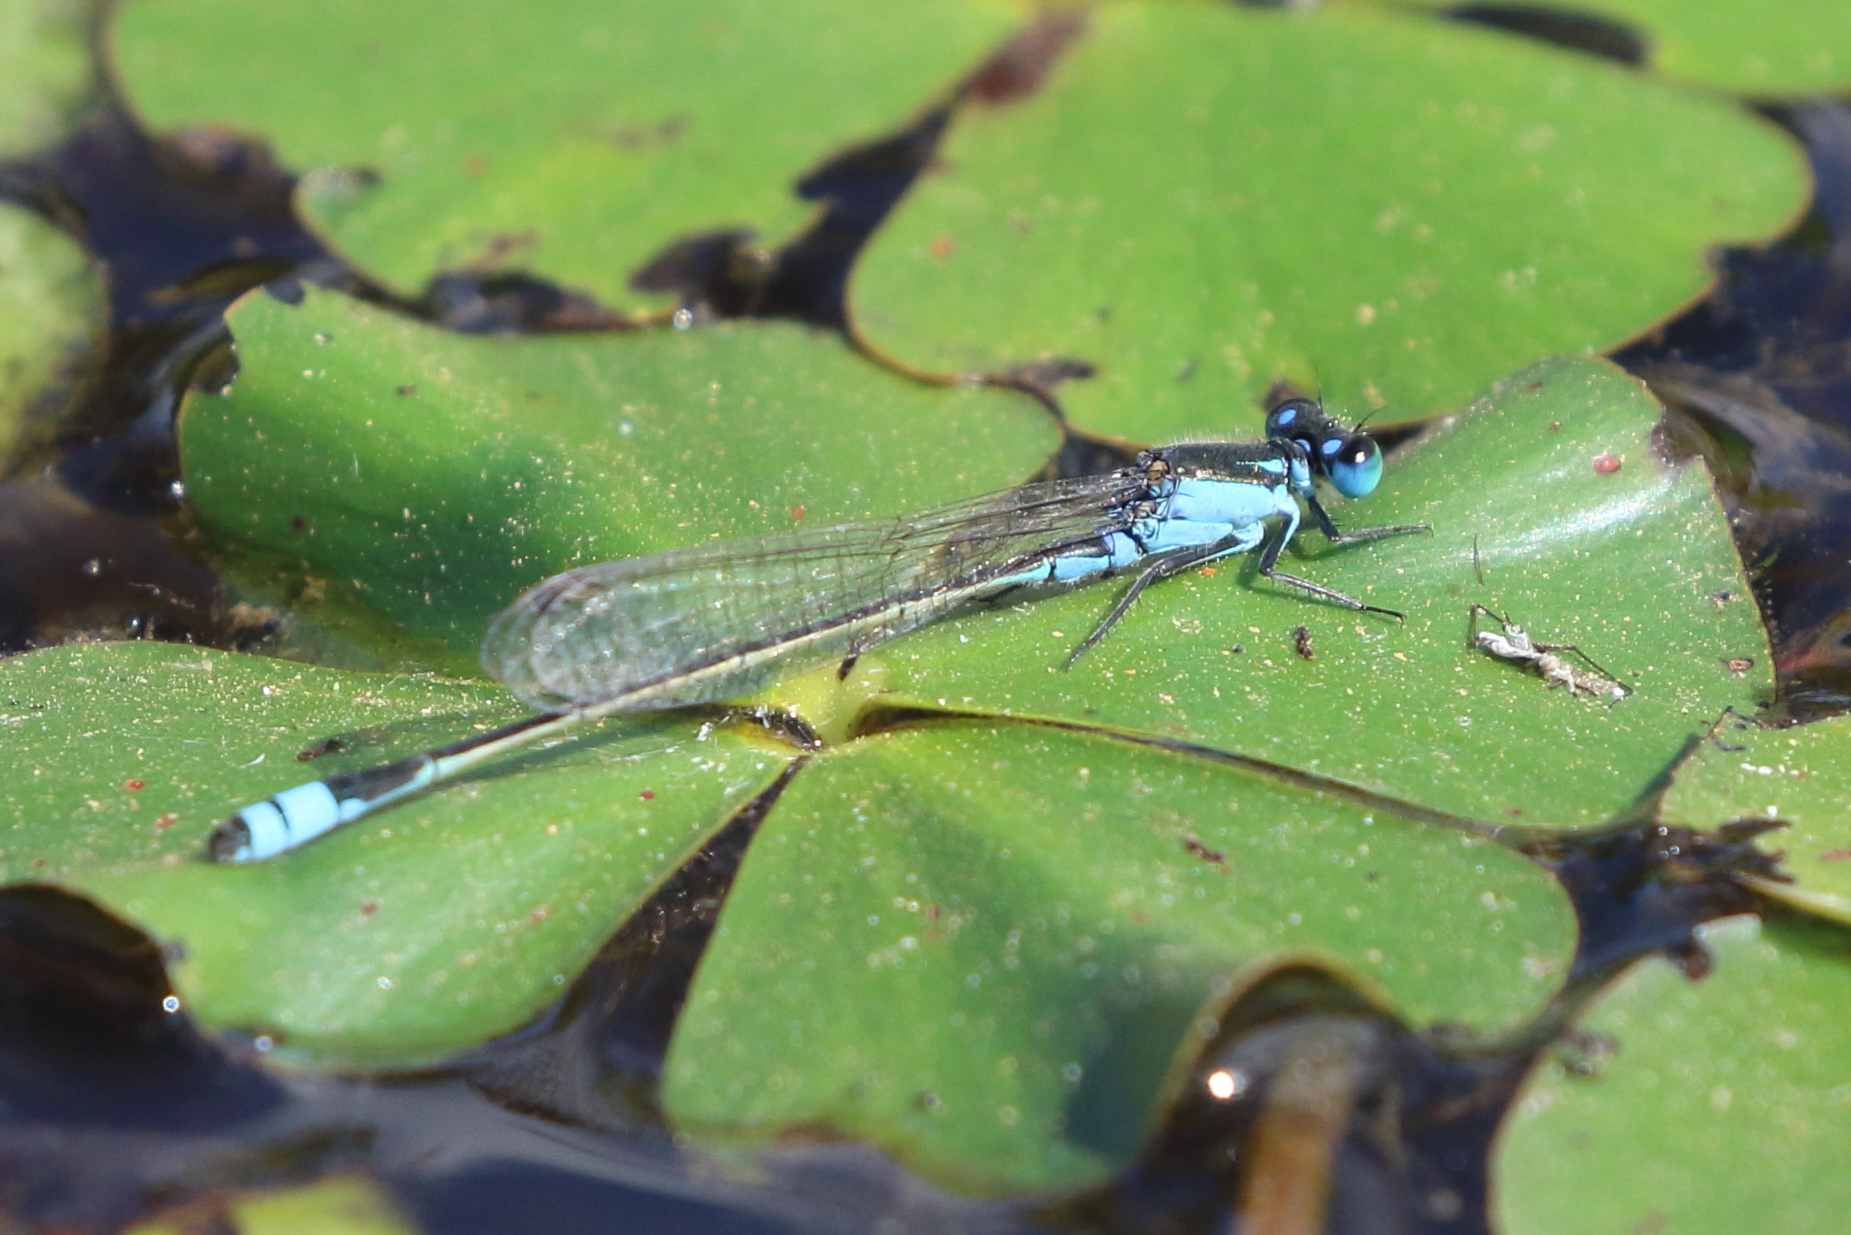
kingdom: Animalia
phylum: Arthropoda
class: Insecta
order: Odonata
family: Coenagrionidae
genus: Ischnura
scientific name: Ischnura heterosticta
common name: Common bluetail
